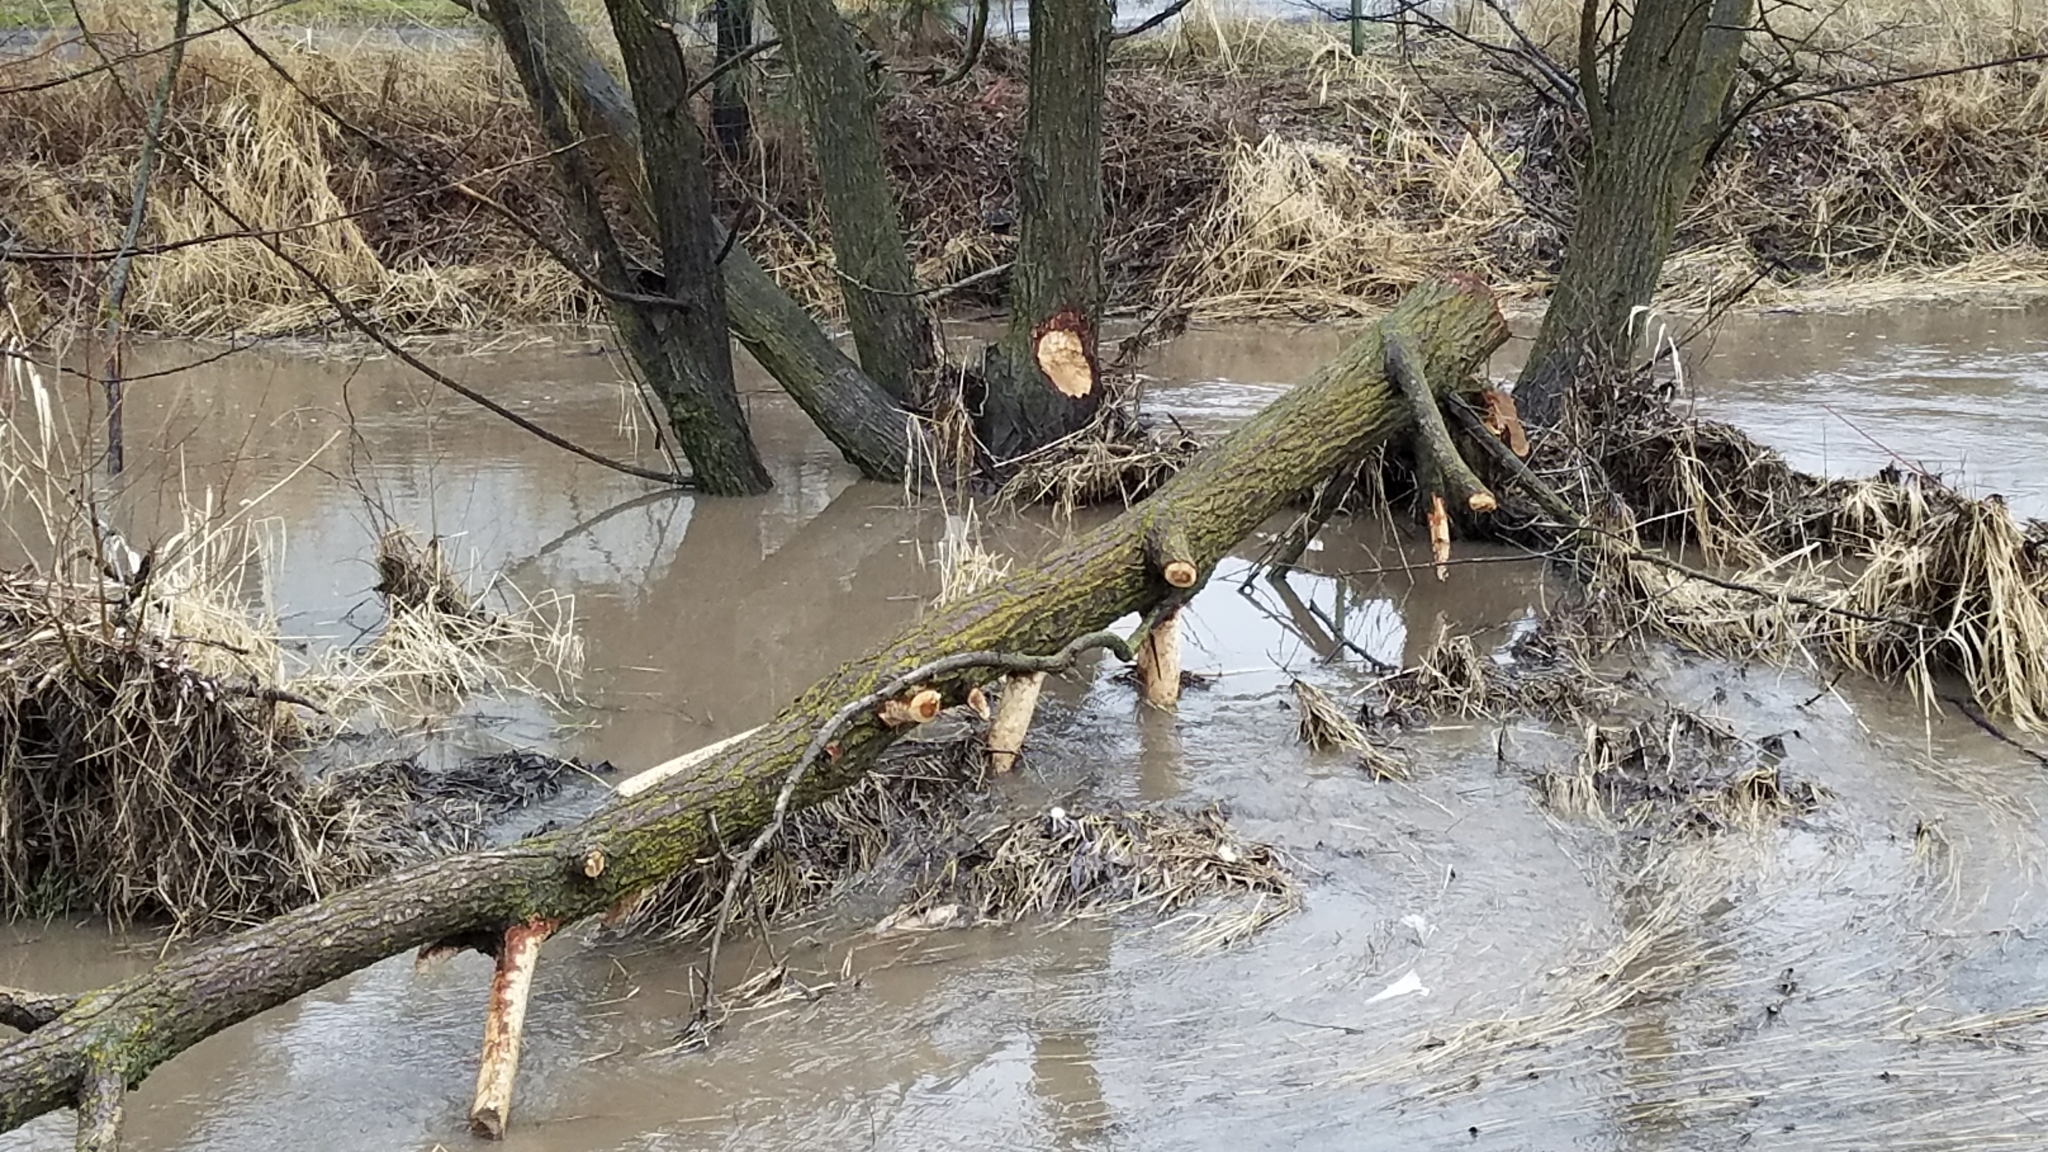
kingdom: Animalia
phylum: Chordata
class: Mammalia
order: Rodentia
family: Castoridae
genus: Castor
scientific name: Castor canadensis
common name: American beaver
